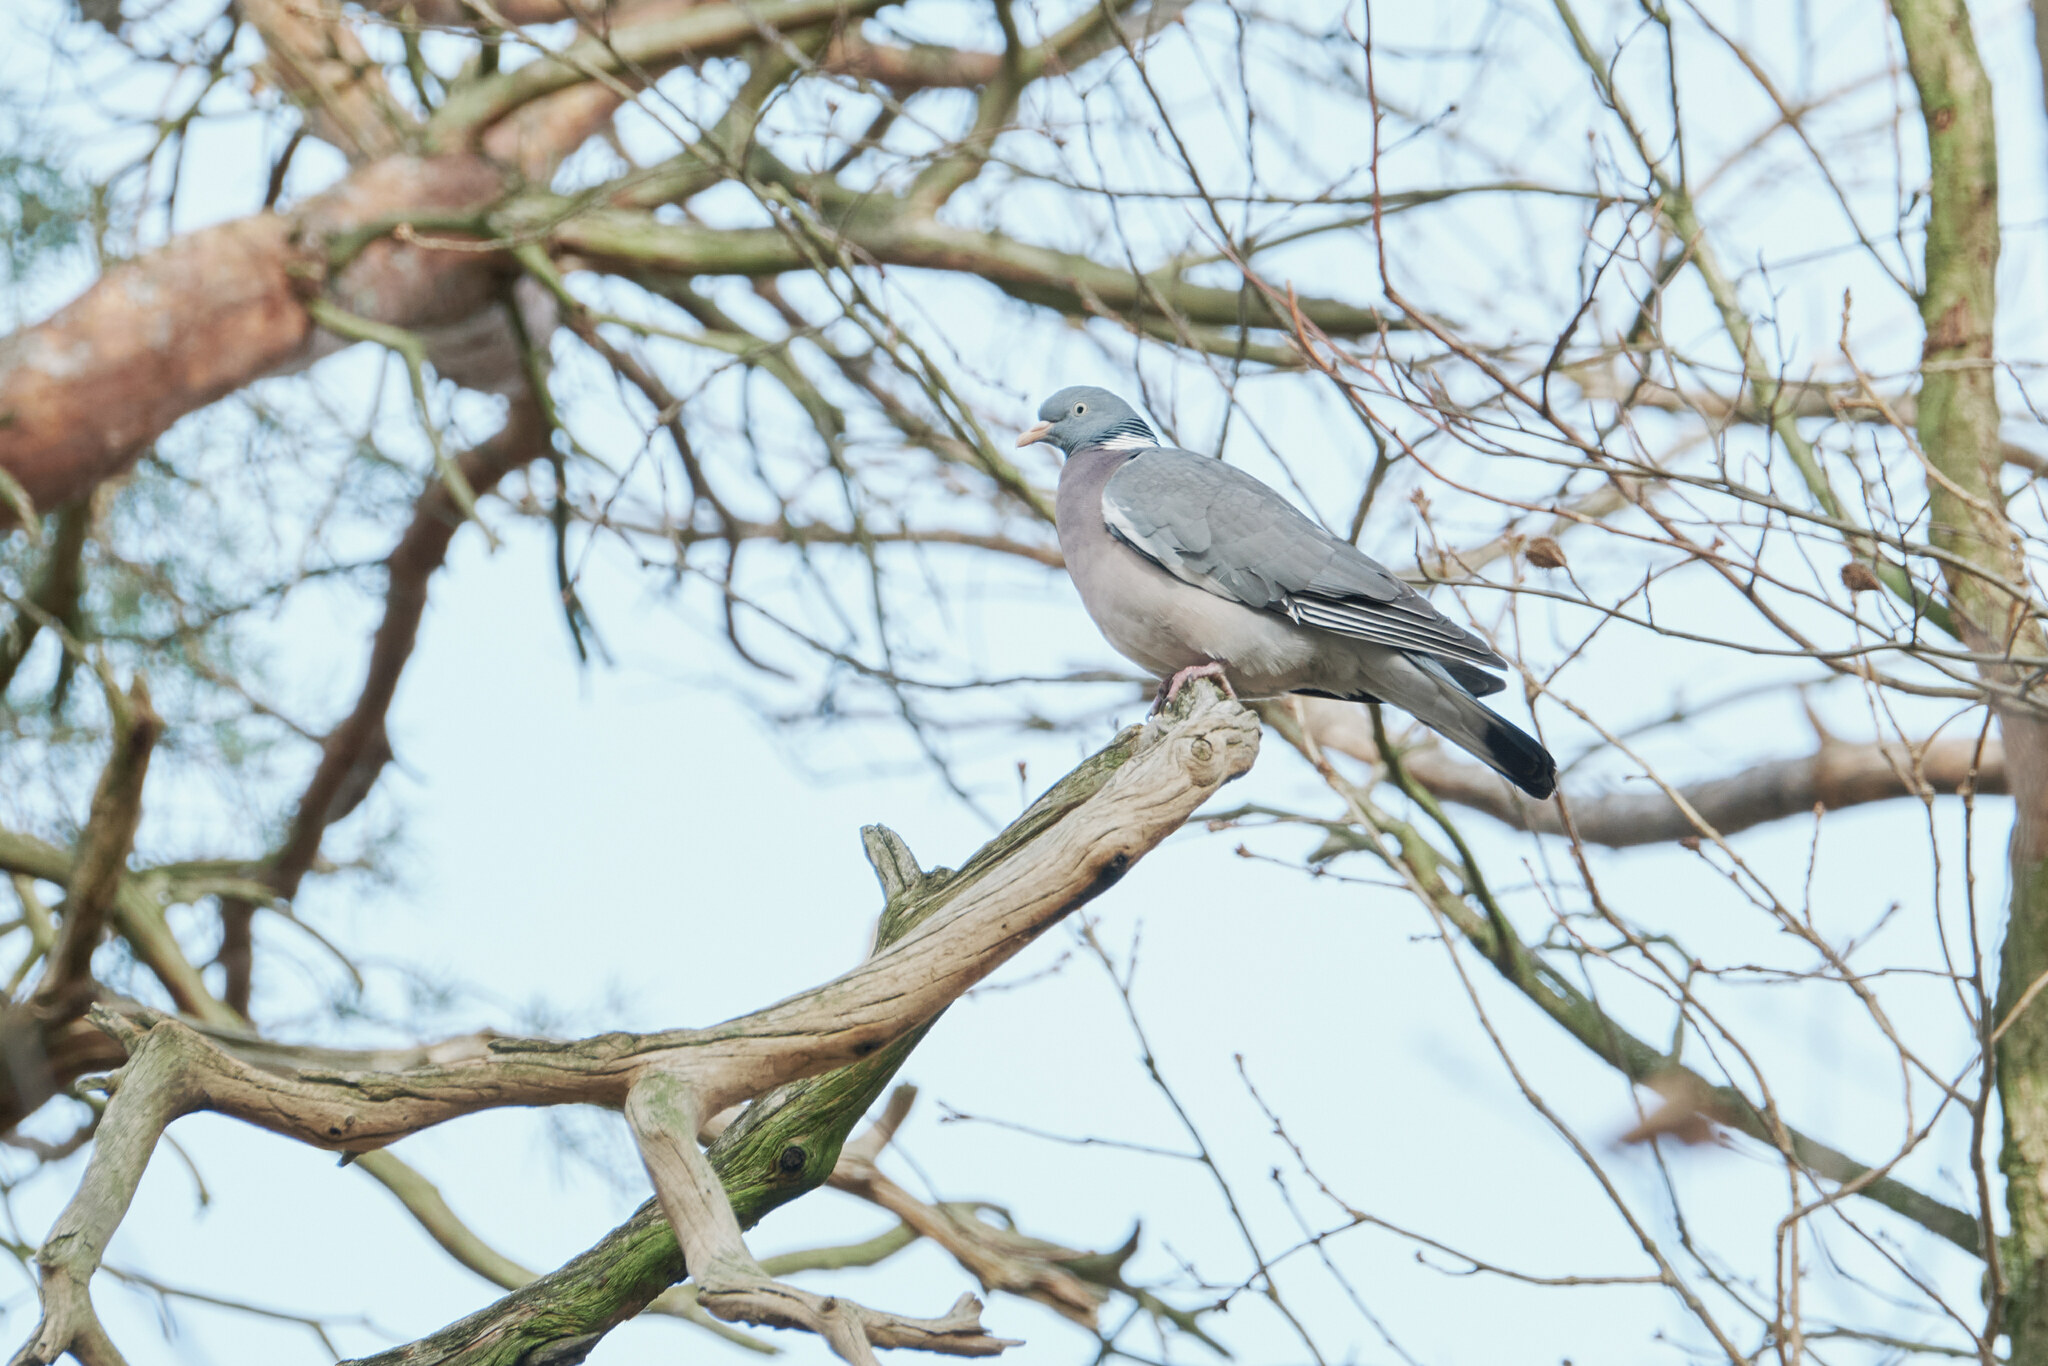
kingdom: Animalia
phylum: Chordata
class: Aves
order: Columbiformes
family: Columbidae
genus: Columba
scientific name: Columba palumbus
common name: Common wood pigeon
